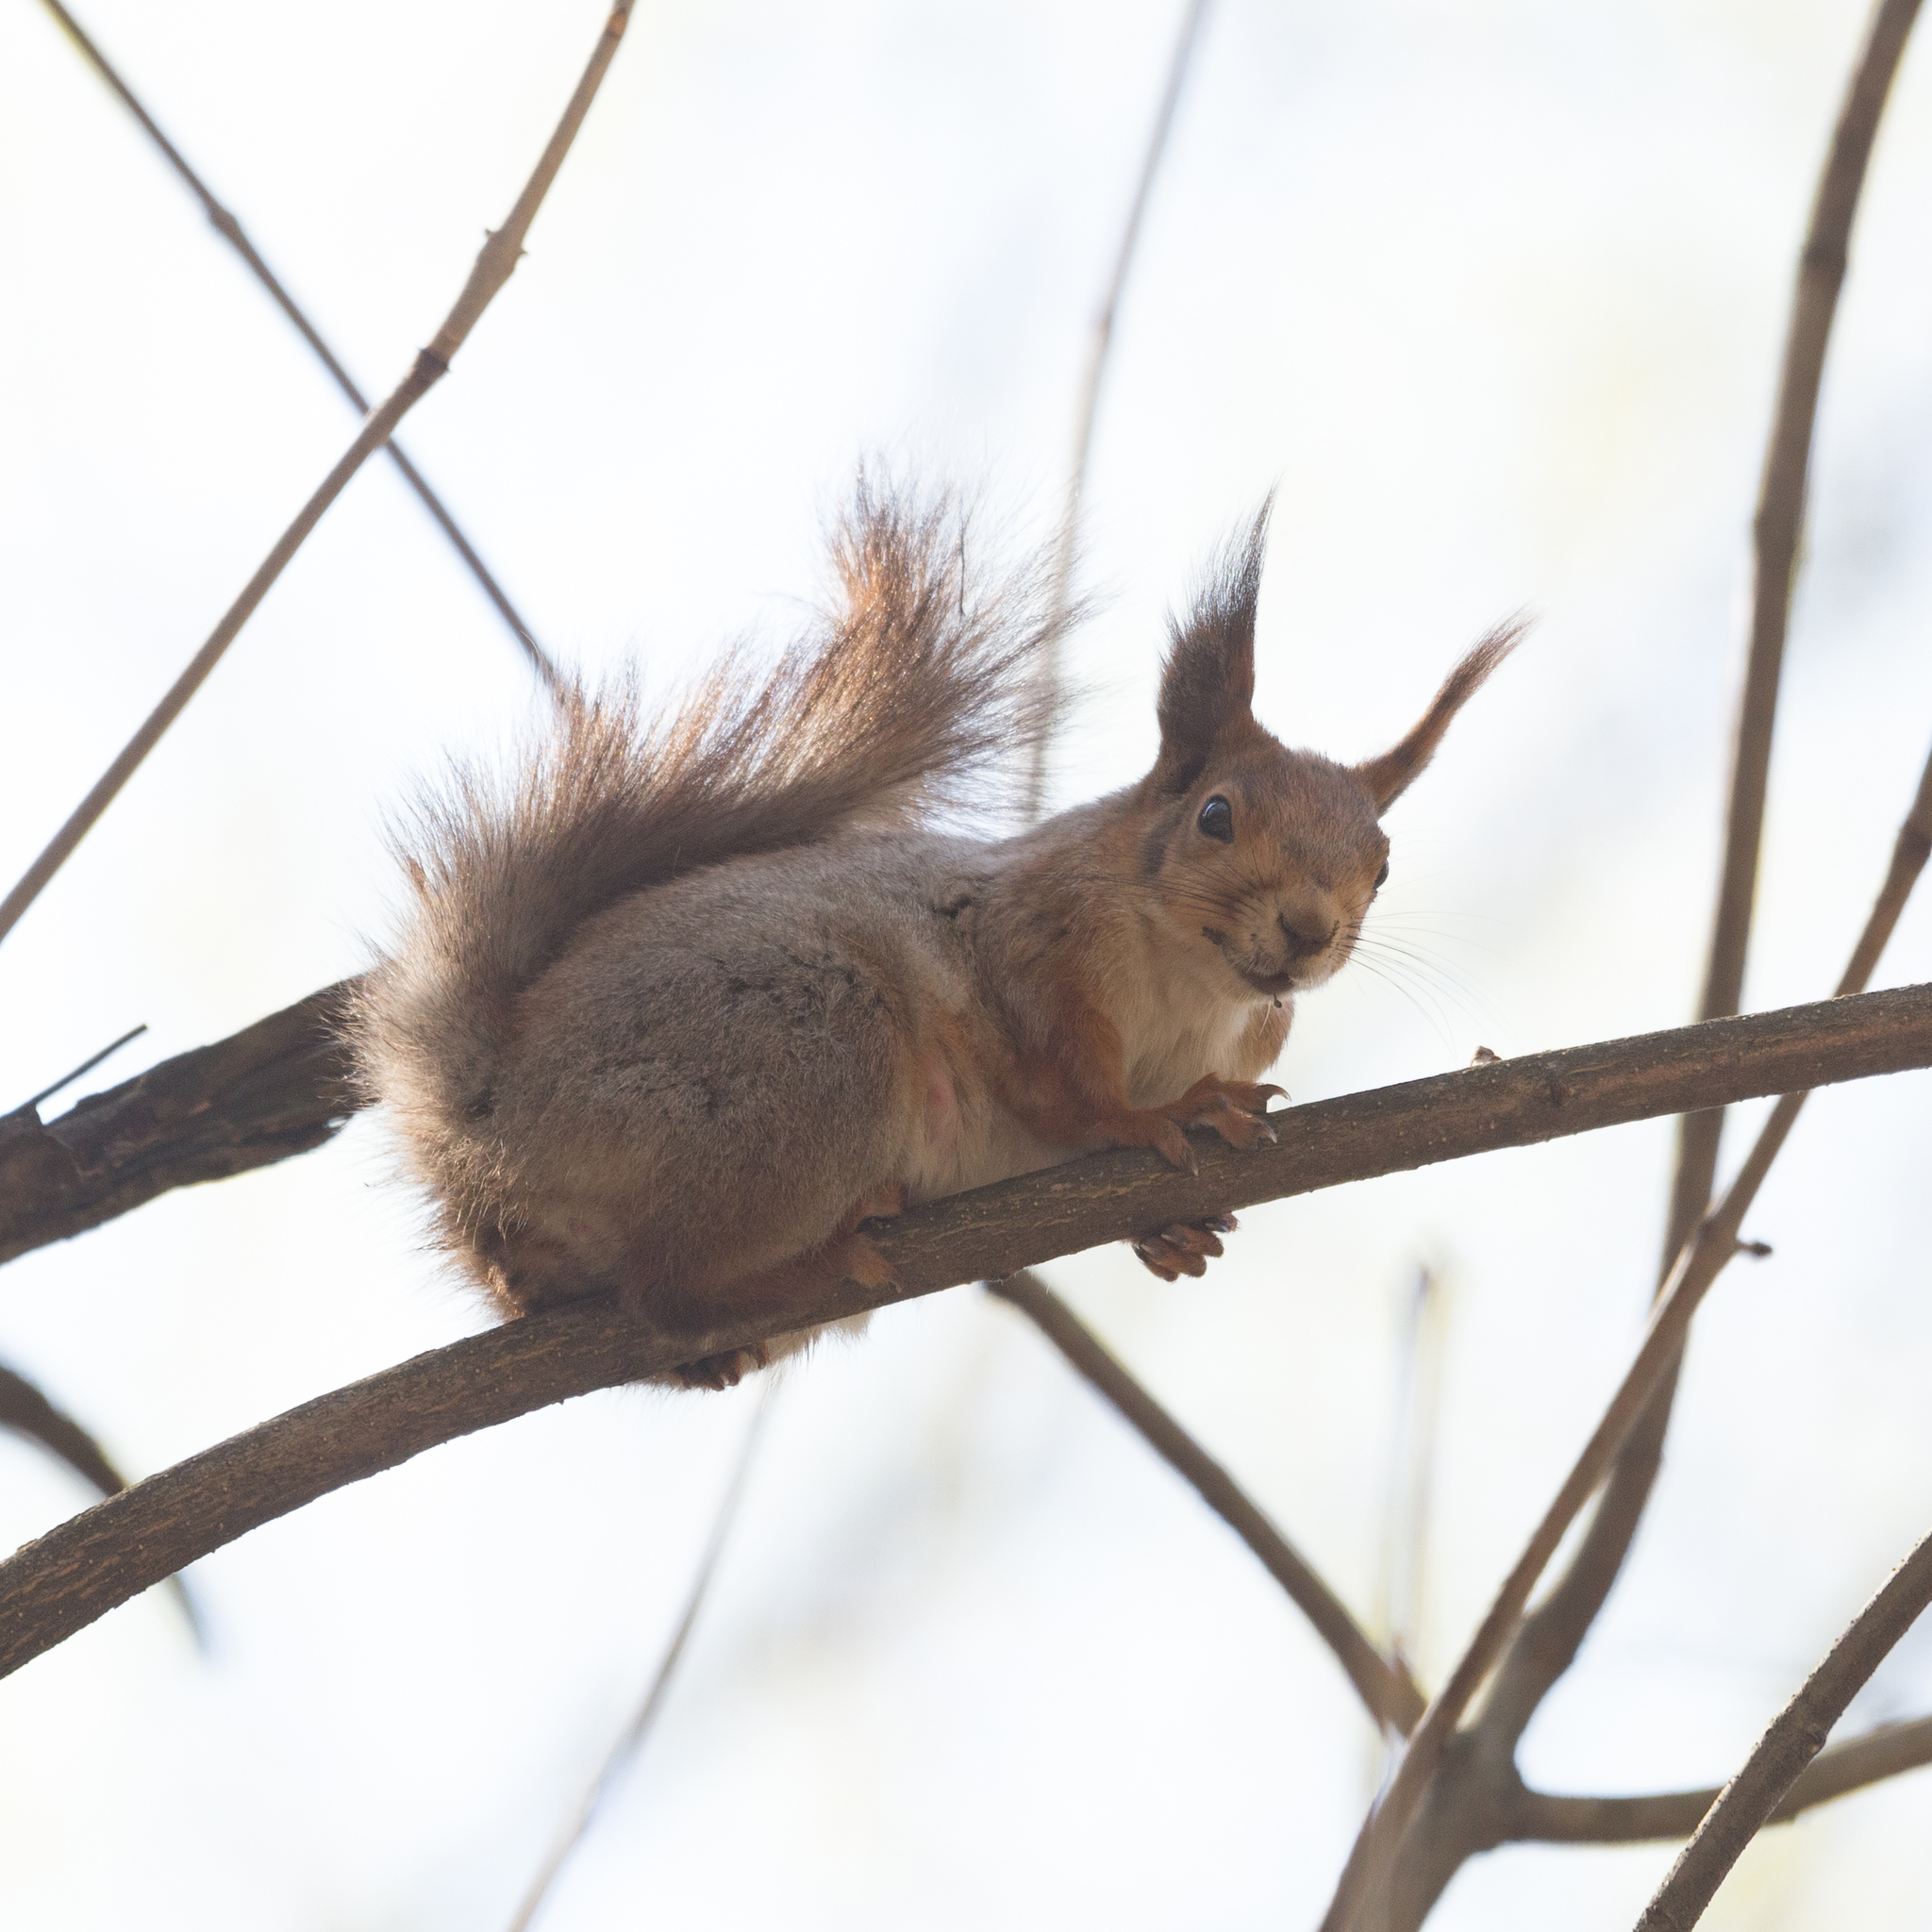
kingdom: Animalia
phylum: Chordata
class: Mammalia
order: Rodentia
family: Sciuridae
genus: Sciurus
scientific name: Sciurus vulgaris
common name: Eurasian red squirrel
